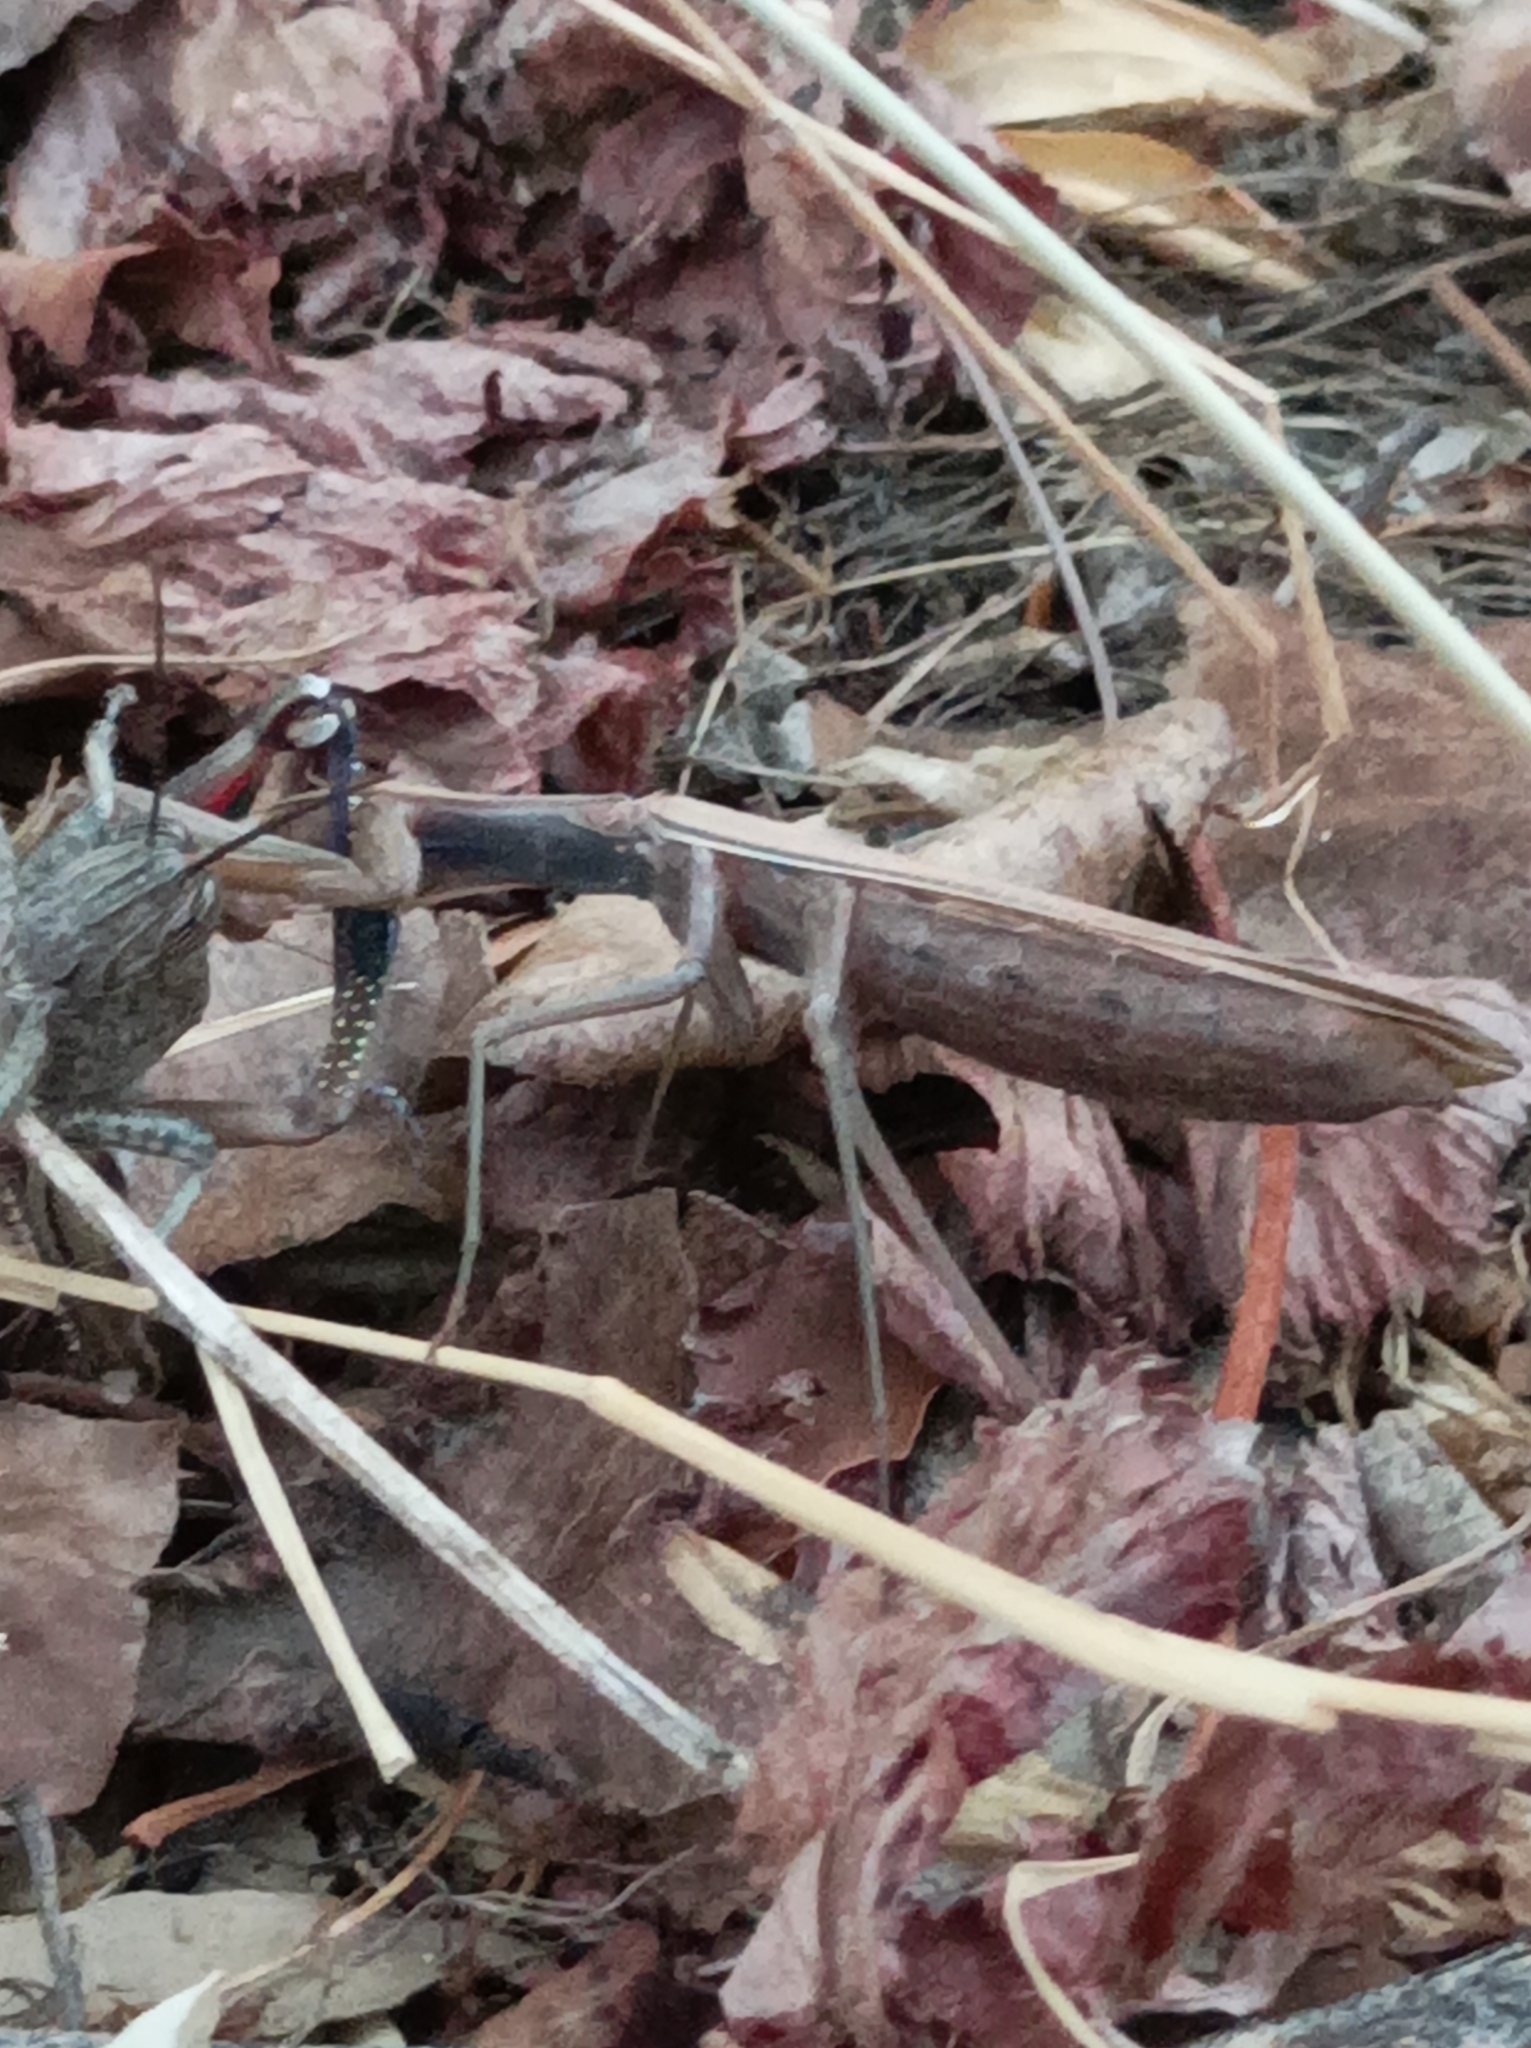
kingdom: Animalia
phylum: Arthropoda
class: Insecta
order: Mantodea
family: Mantidae
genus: Mantis
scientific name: Mantis religiosa
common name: Praying mantis
